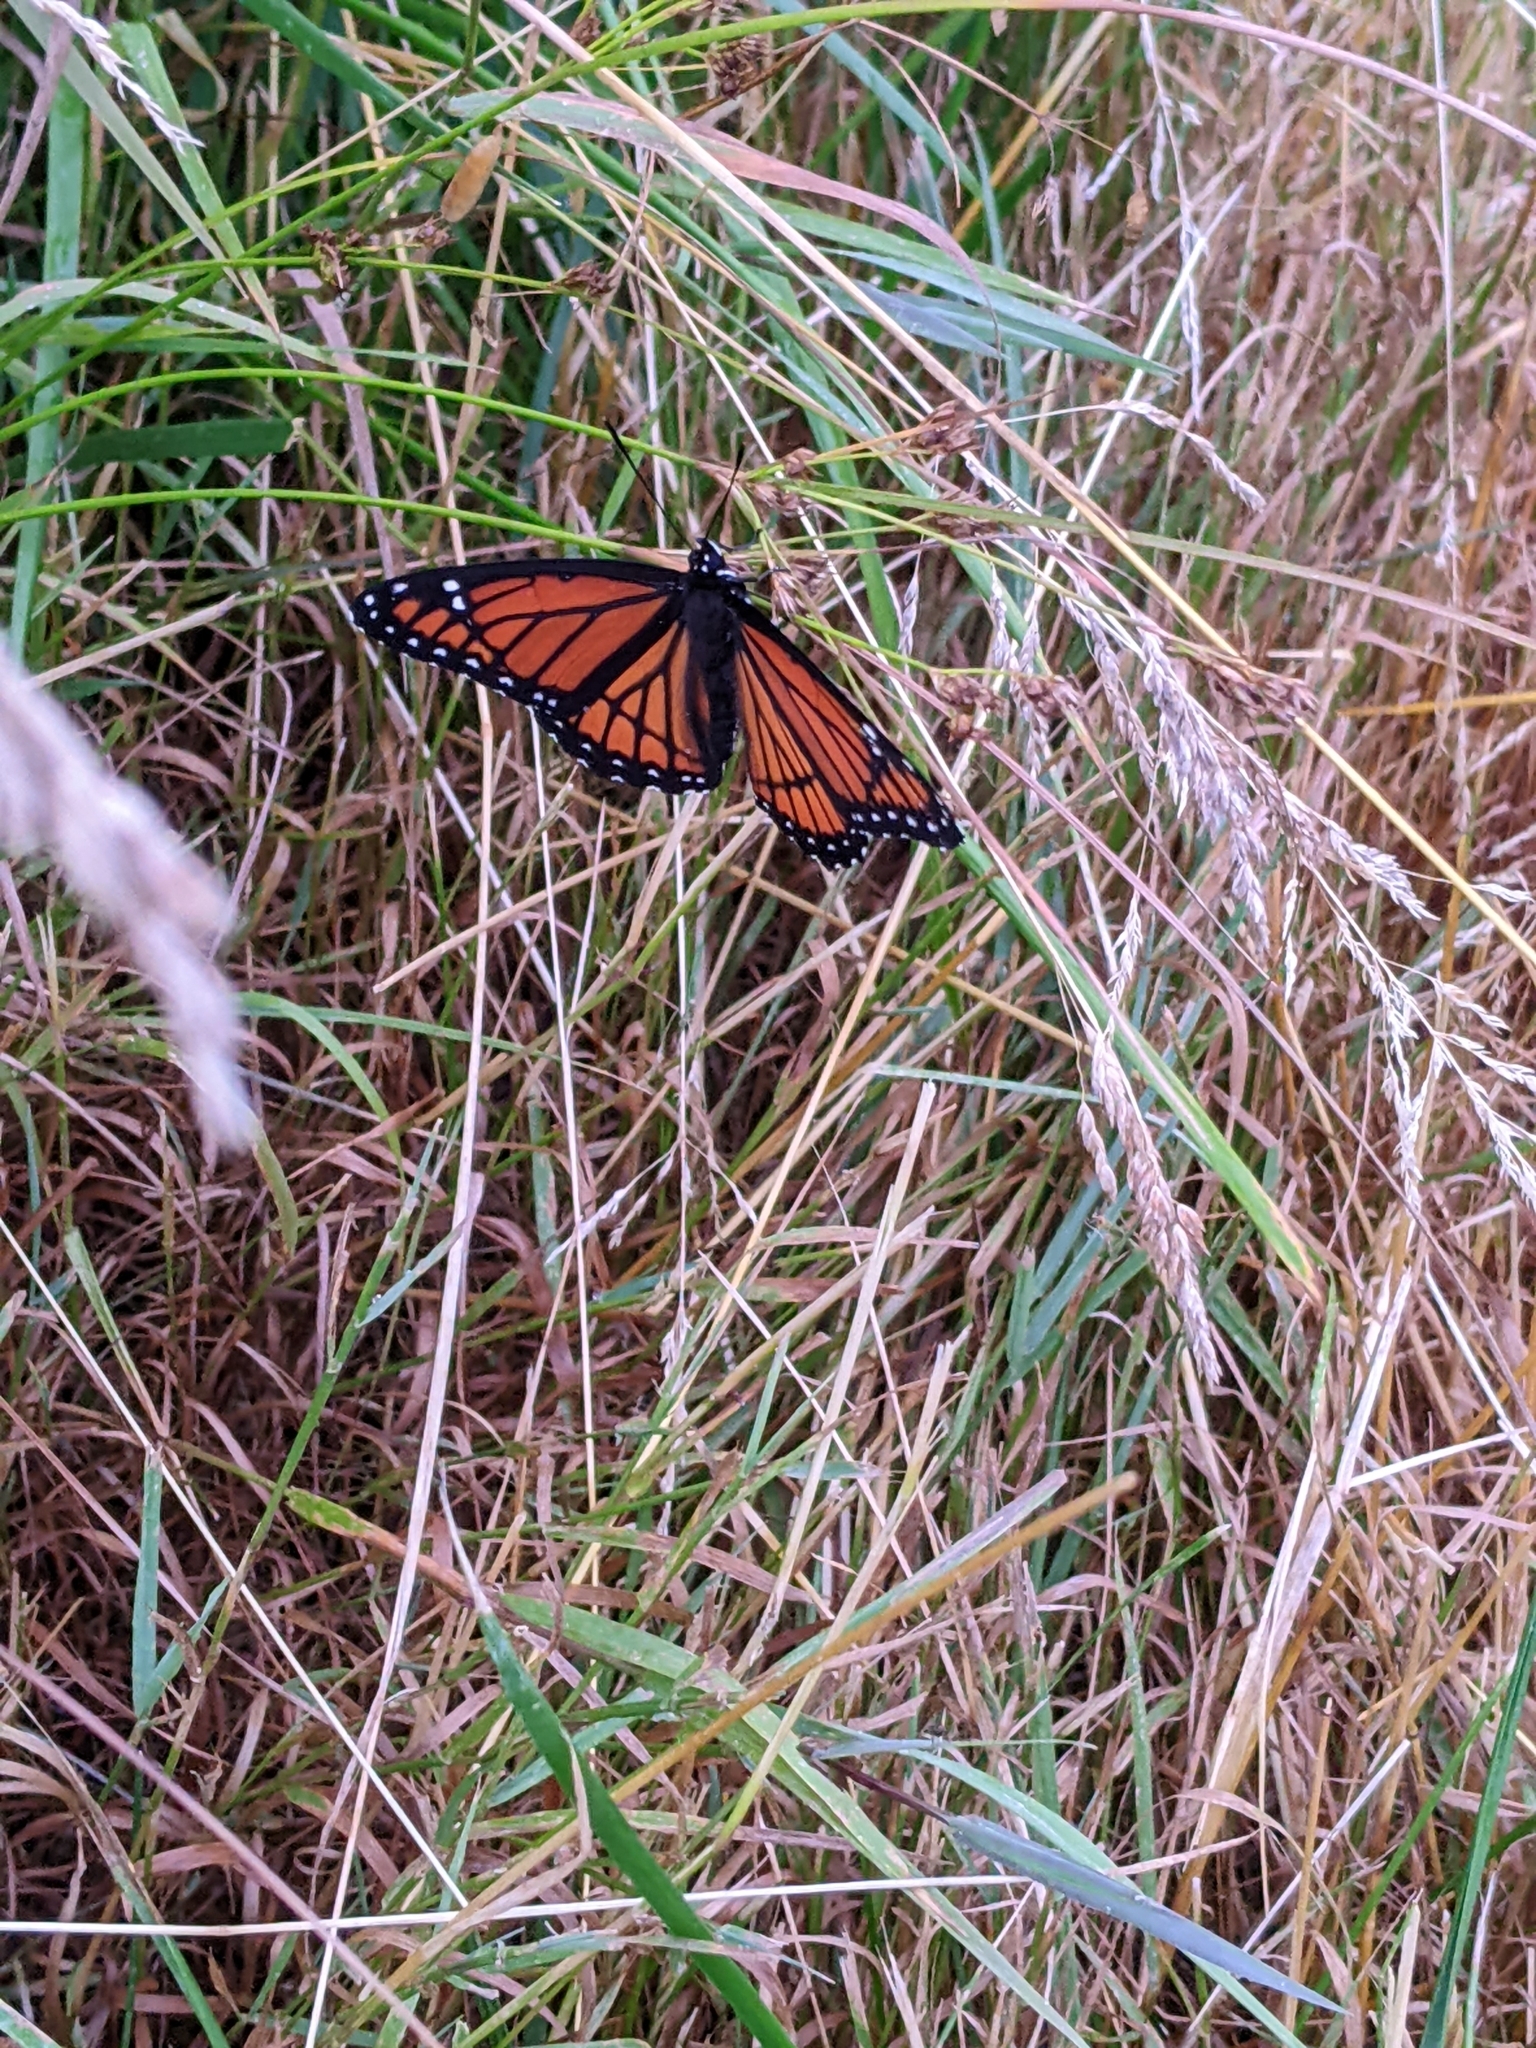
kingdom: Animalia
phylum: Arthropoda
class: Insecta
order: Lepidoptera
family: Nymphalidae
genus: Limenitis
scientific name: Limenitis archippus
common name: Viceroy
